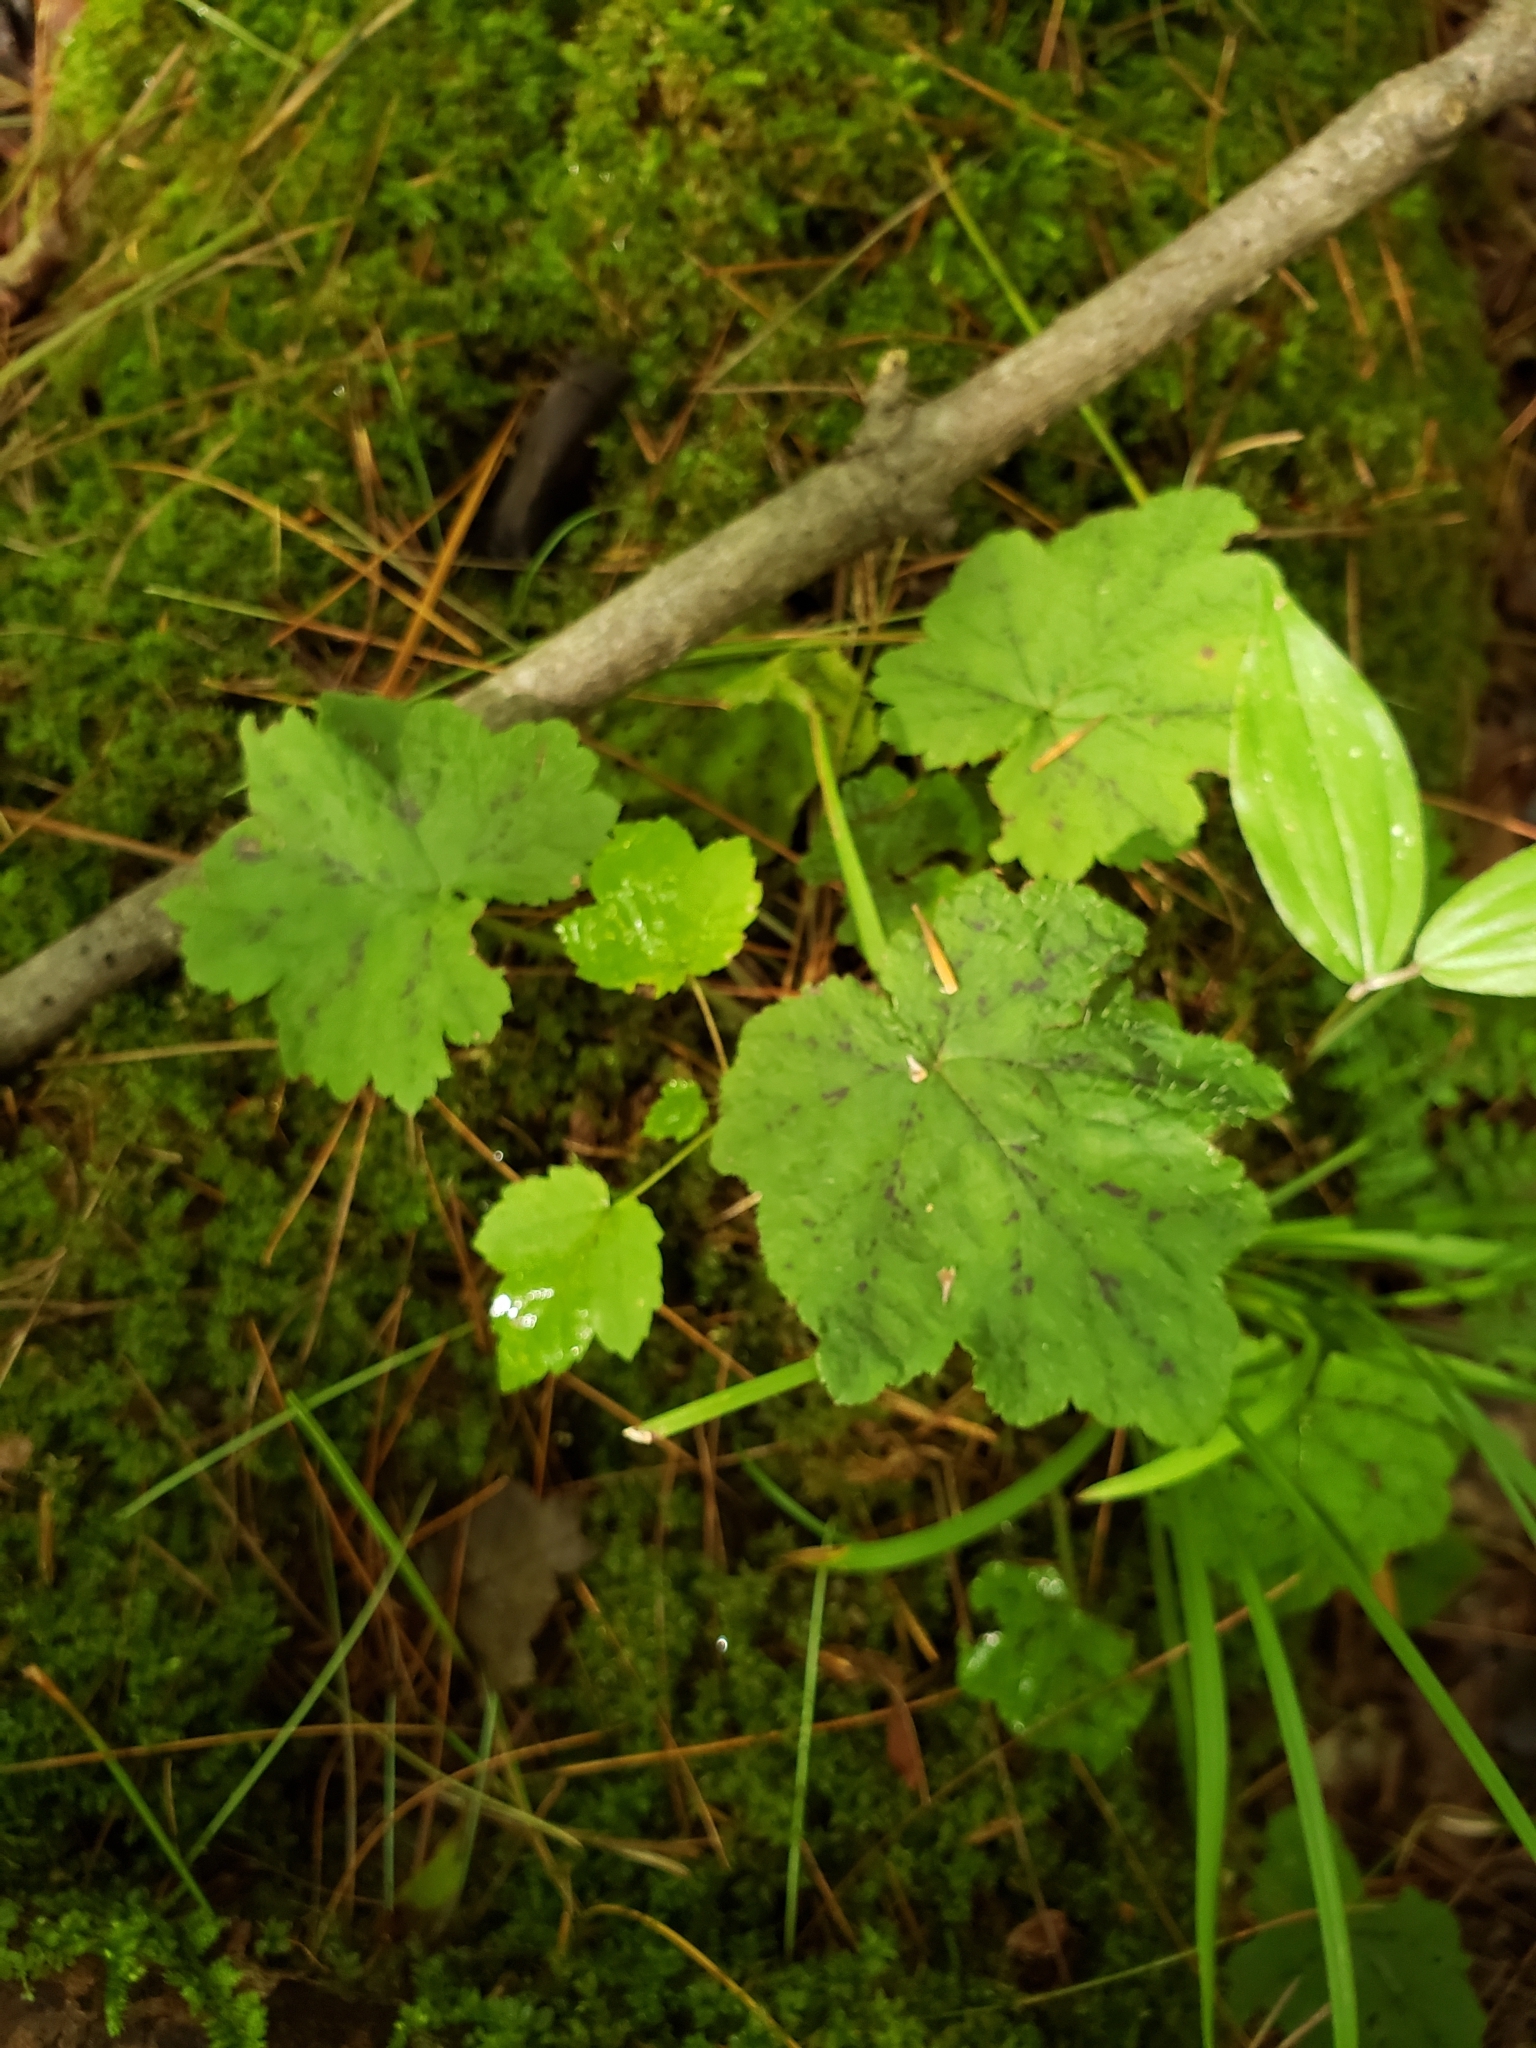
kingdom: Plantae
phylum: Tracheophyta
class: Magnoliopsida
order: Saxifragales
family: Saxifragaceae
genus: Tiarella
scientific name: Tiarella stolonifera
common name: Stoloniferous foamflower
